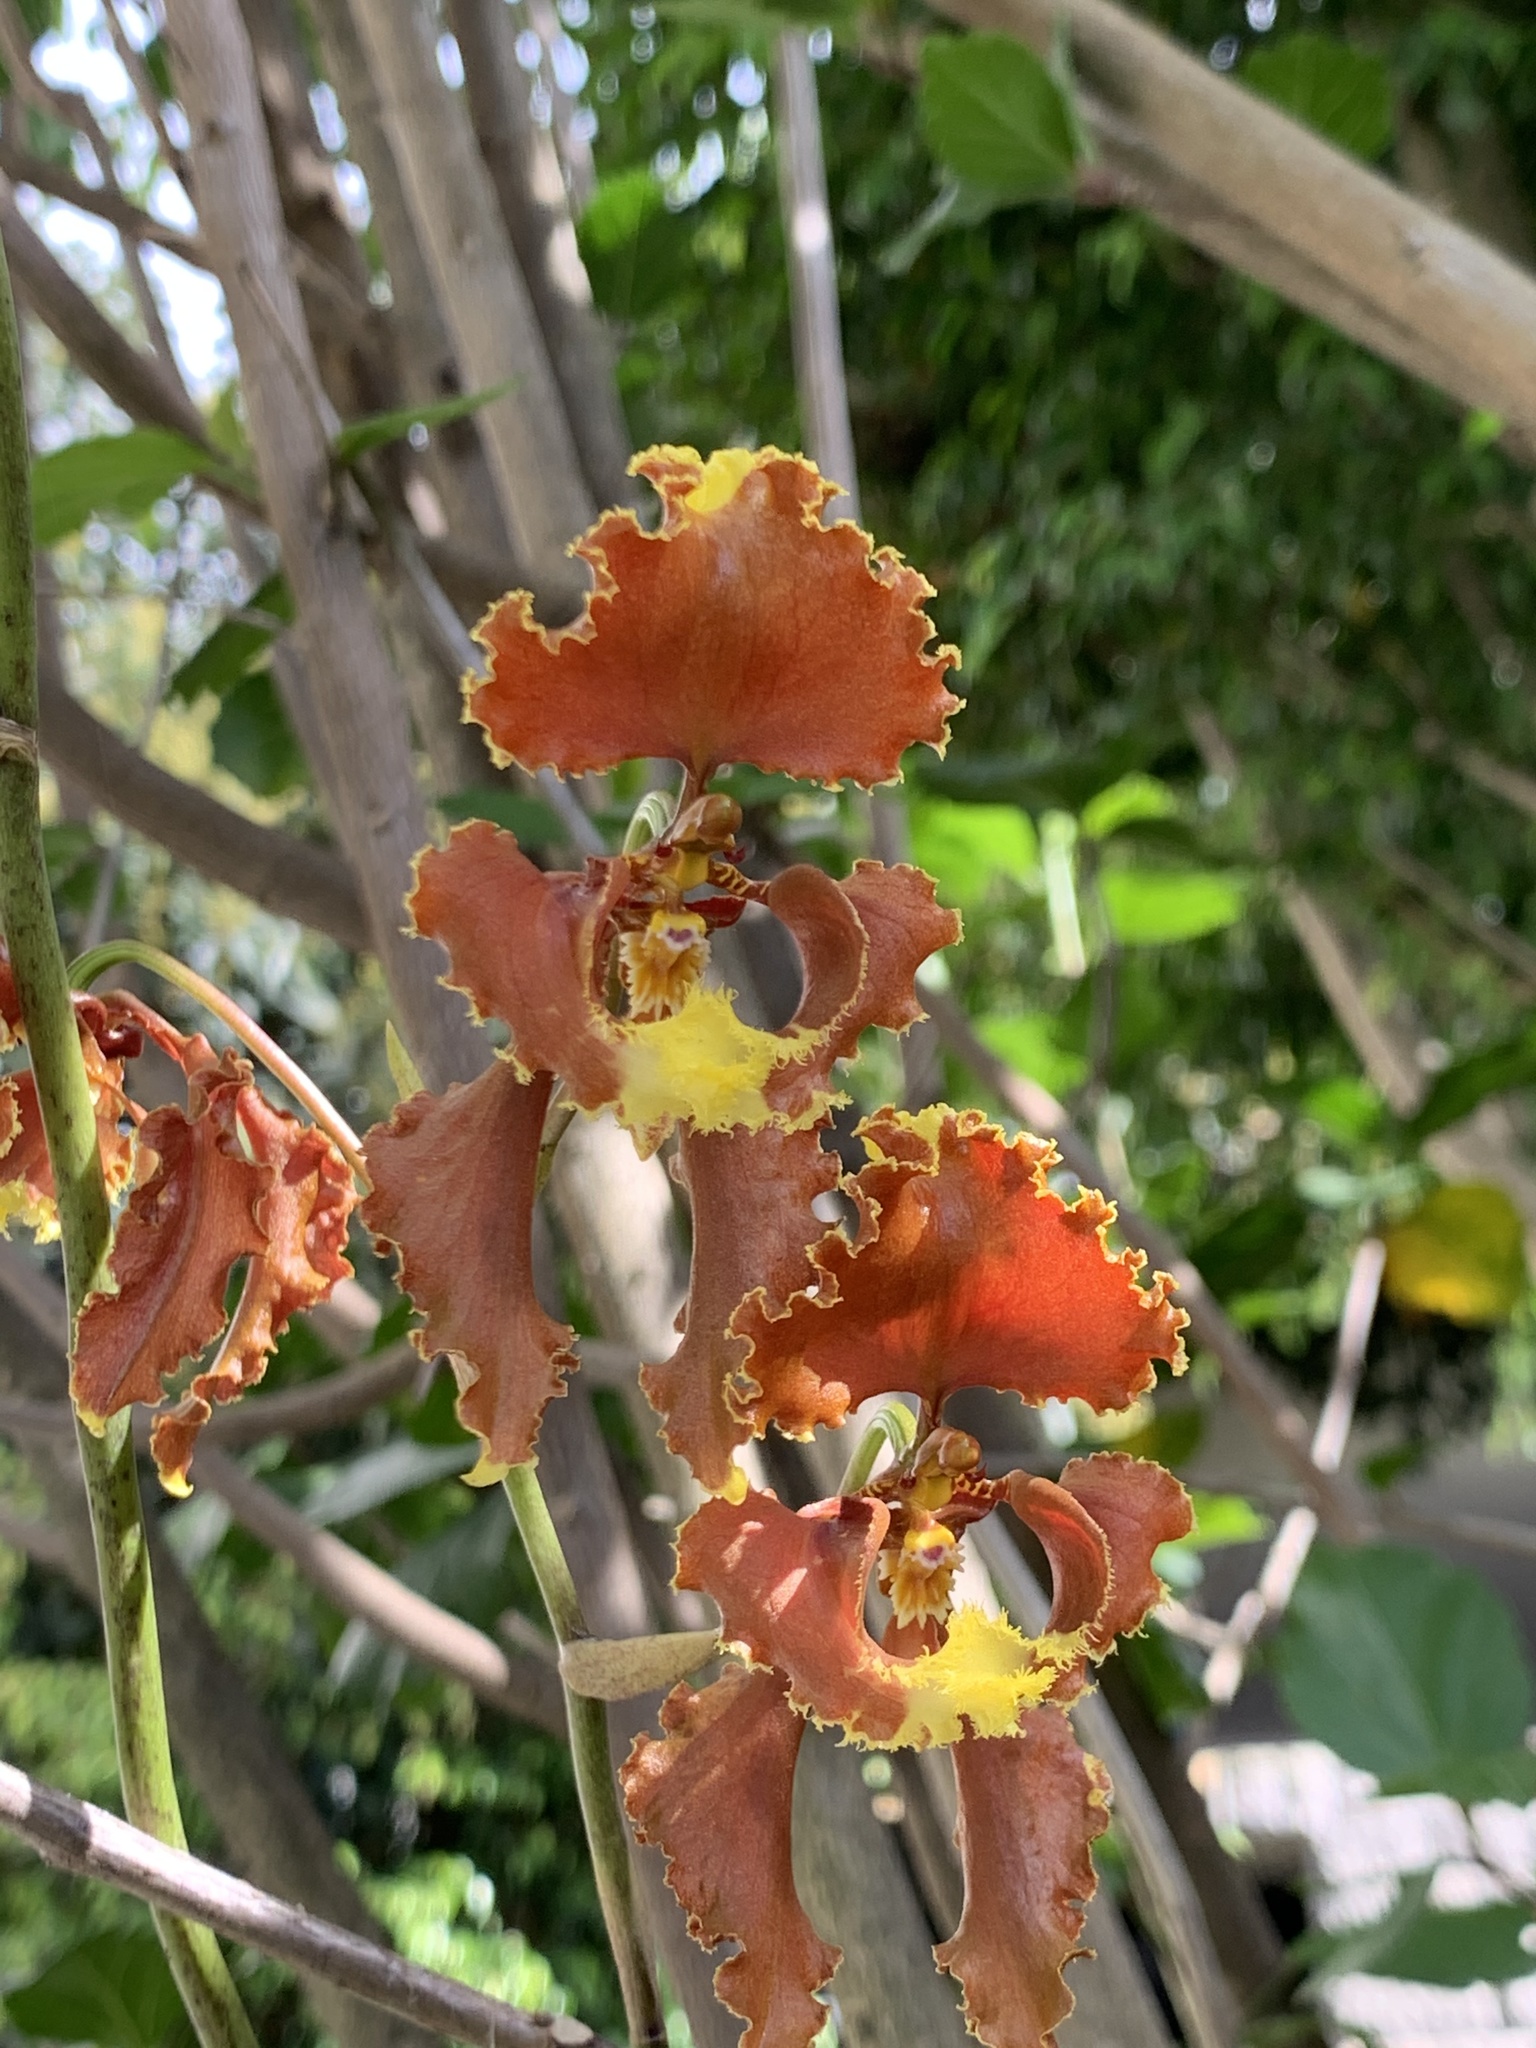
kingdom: Plantae
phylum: Tracheophyta
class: Liliopsida
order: Asparagales
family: Orchidaceae
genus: Cyrtochilum
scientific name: Cyrtochilum serratum
